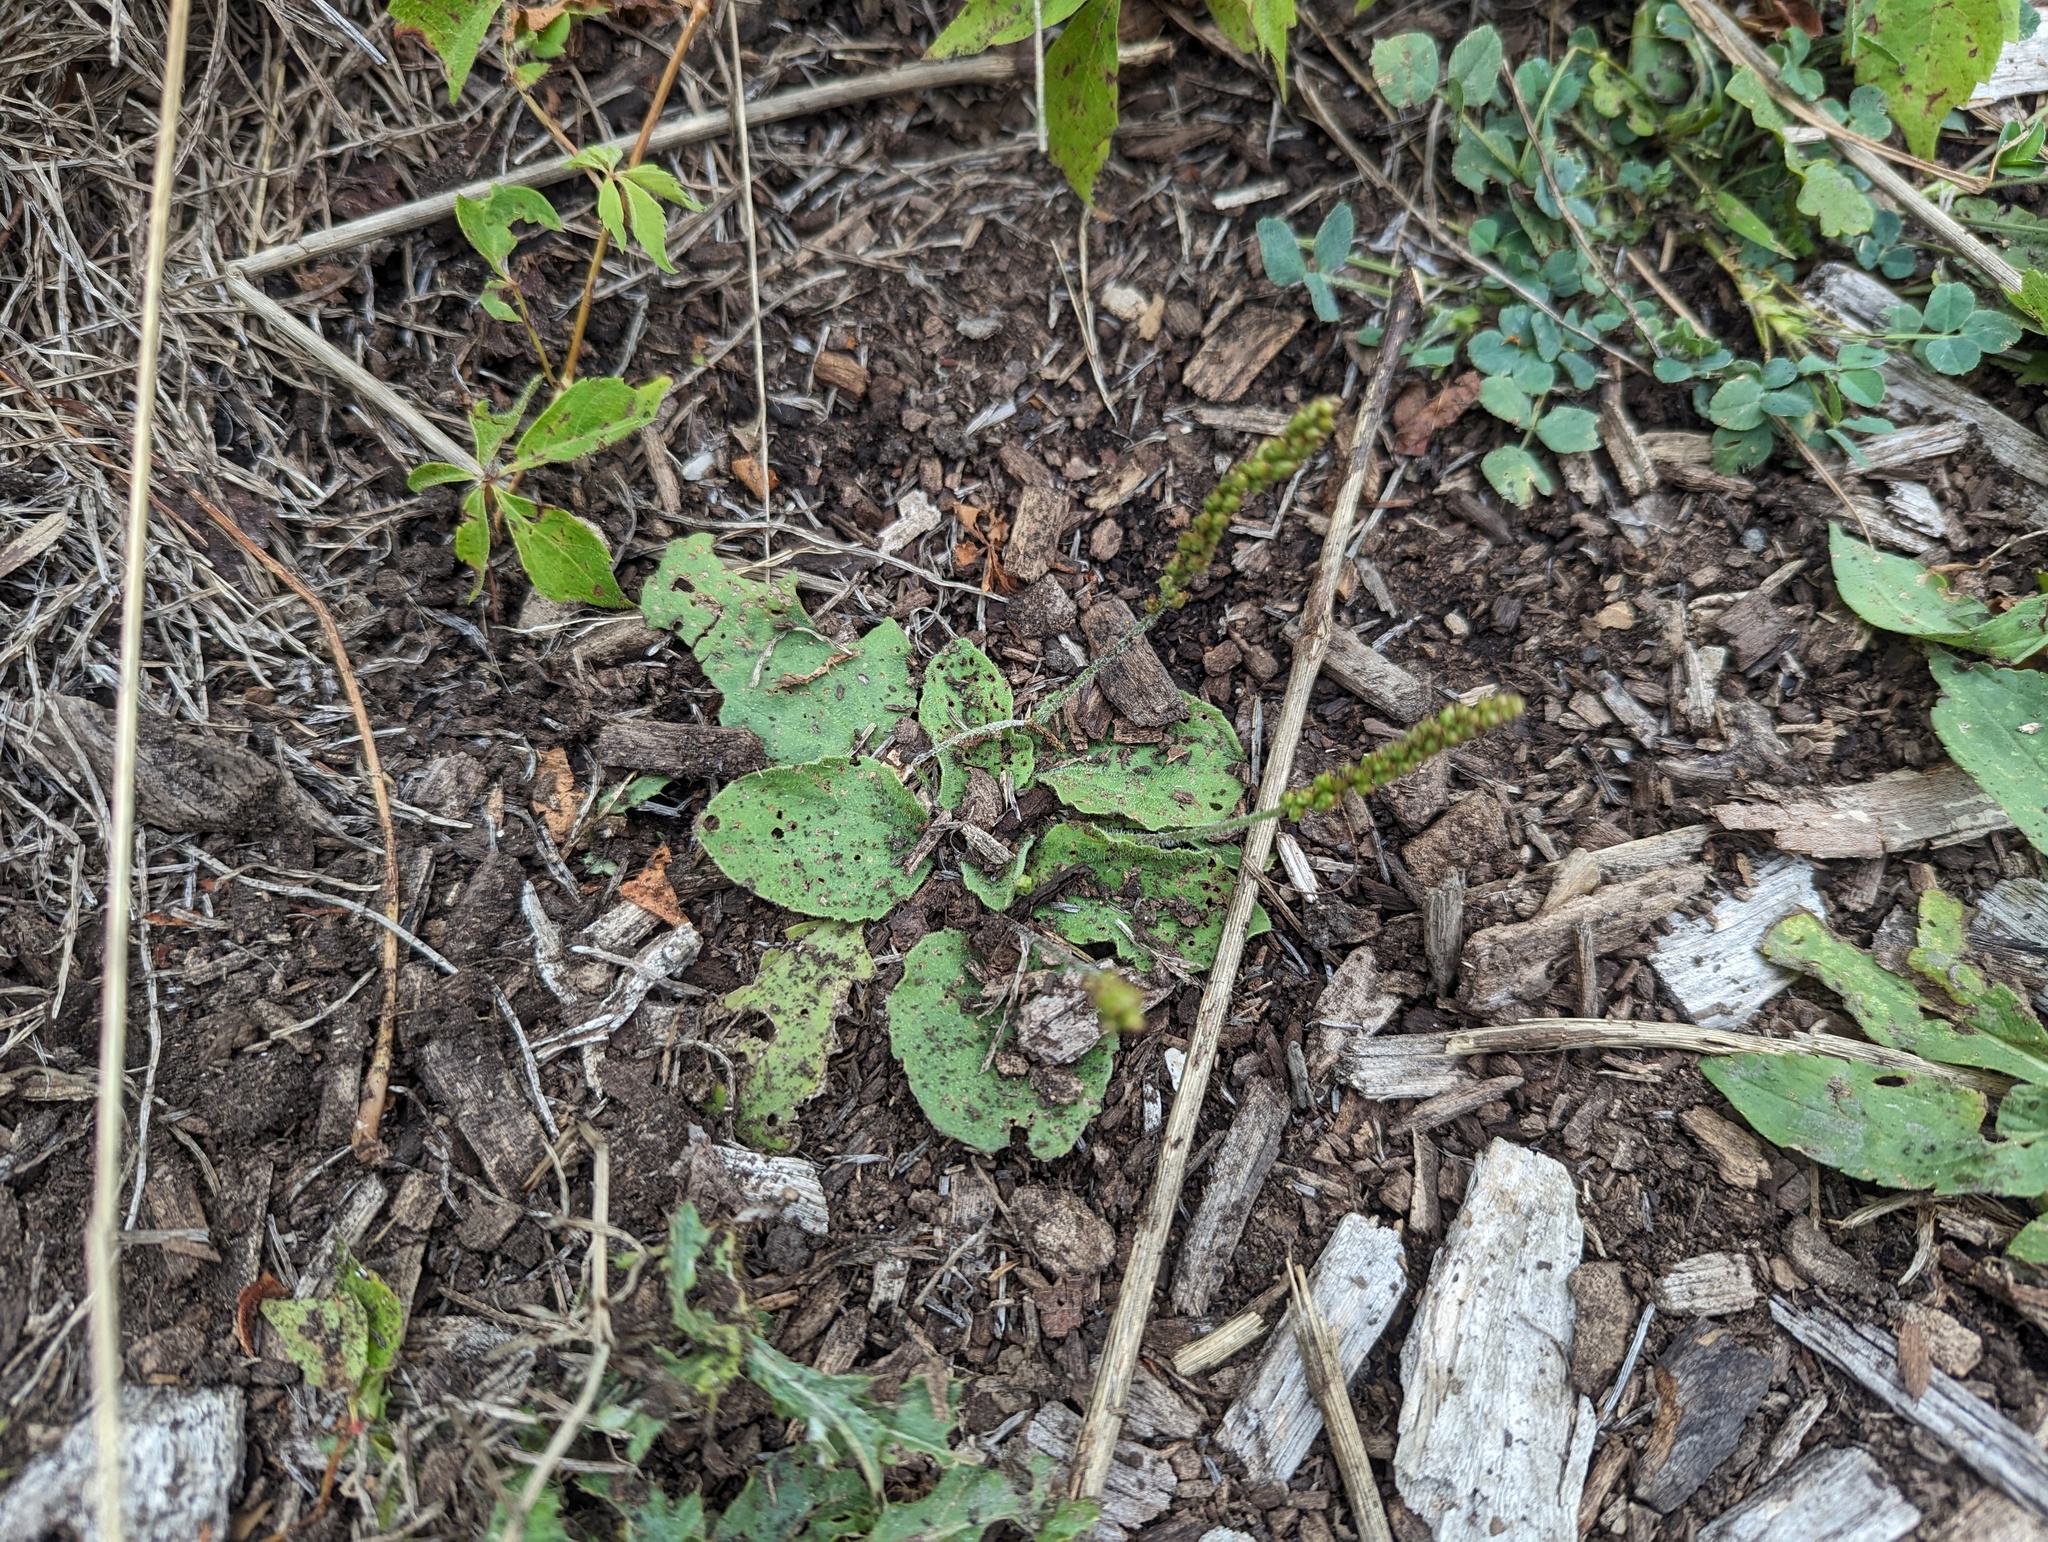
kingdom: Plantae
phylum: Tracheophyta
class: Magnoliopsida
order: Lamiales
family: Plantaginaceae
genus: Plantago
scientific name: Plantago major
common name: Common plantain
